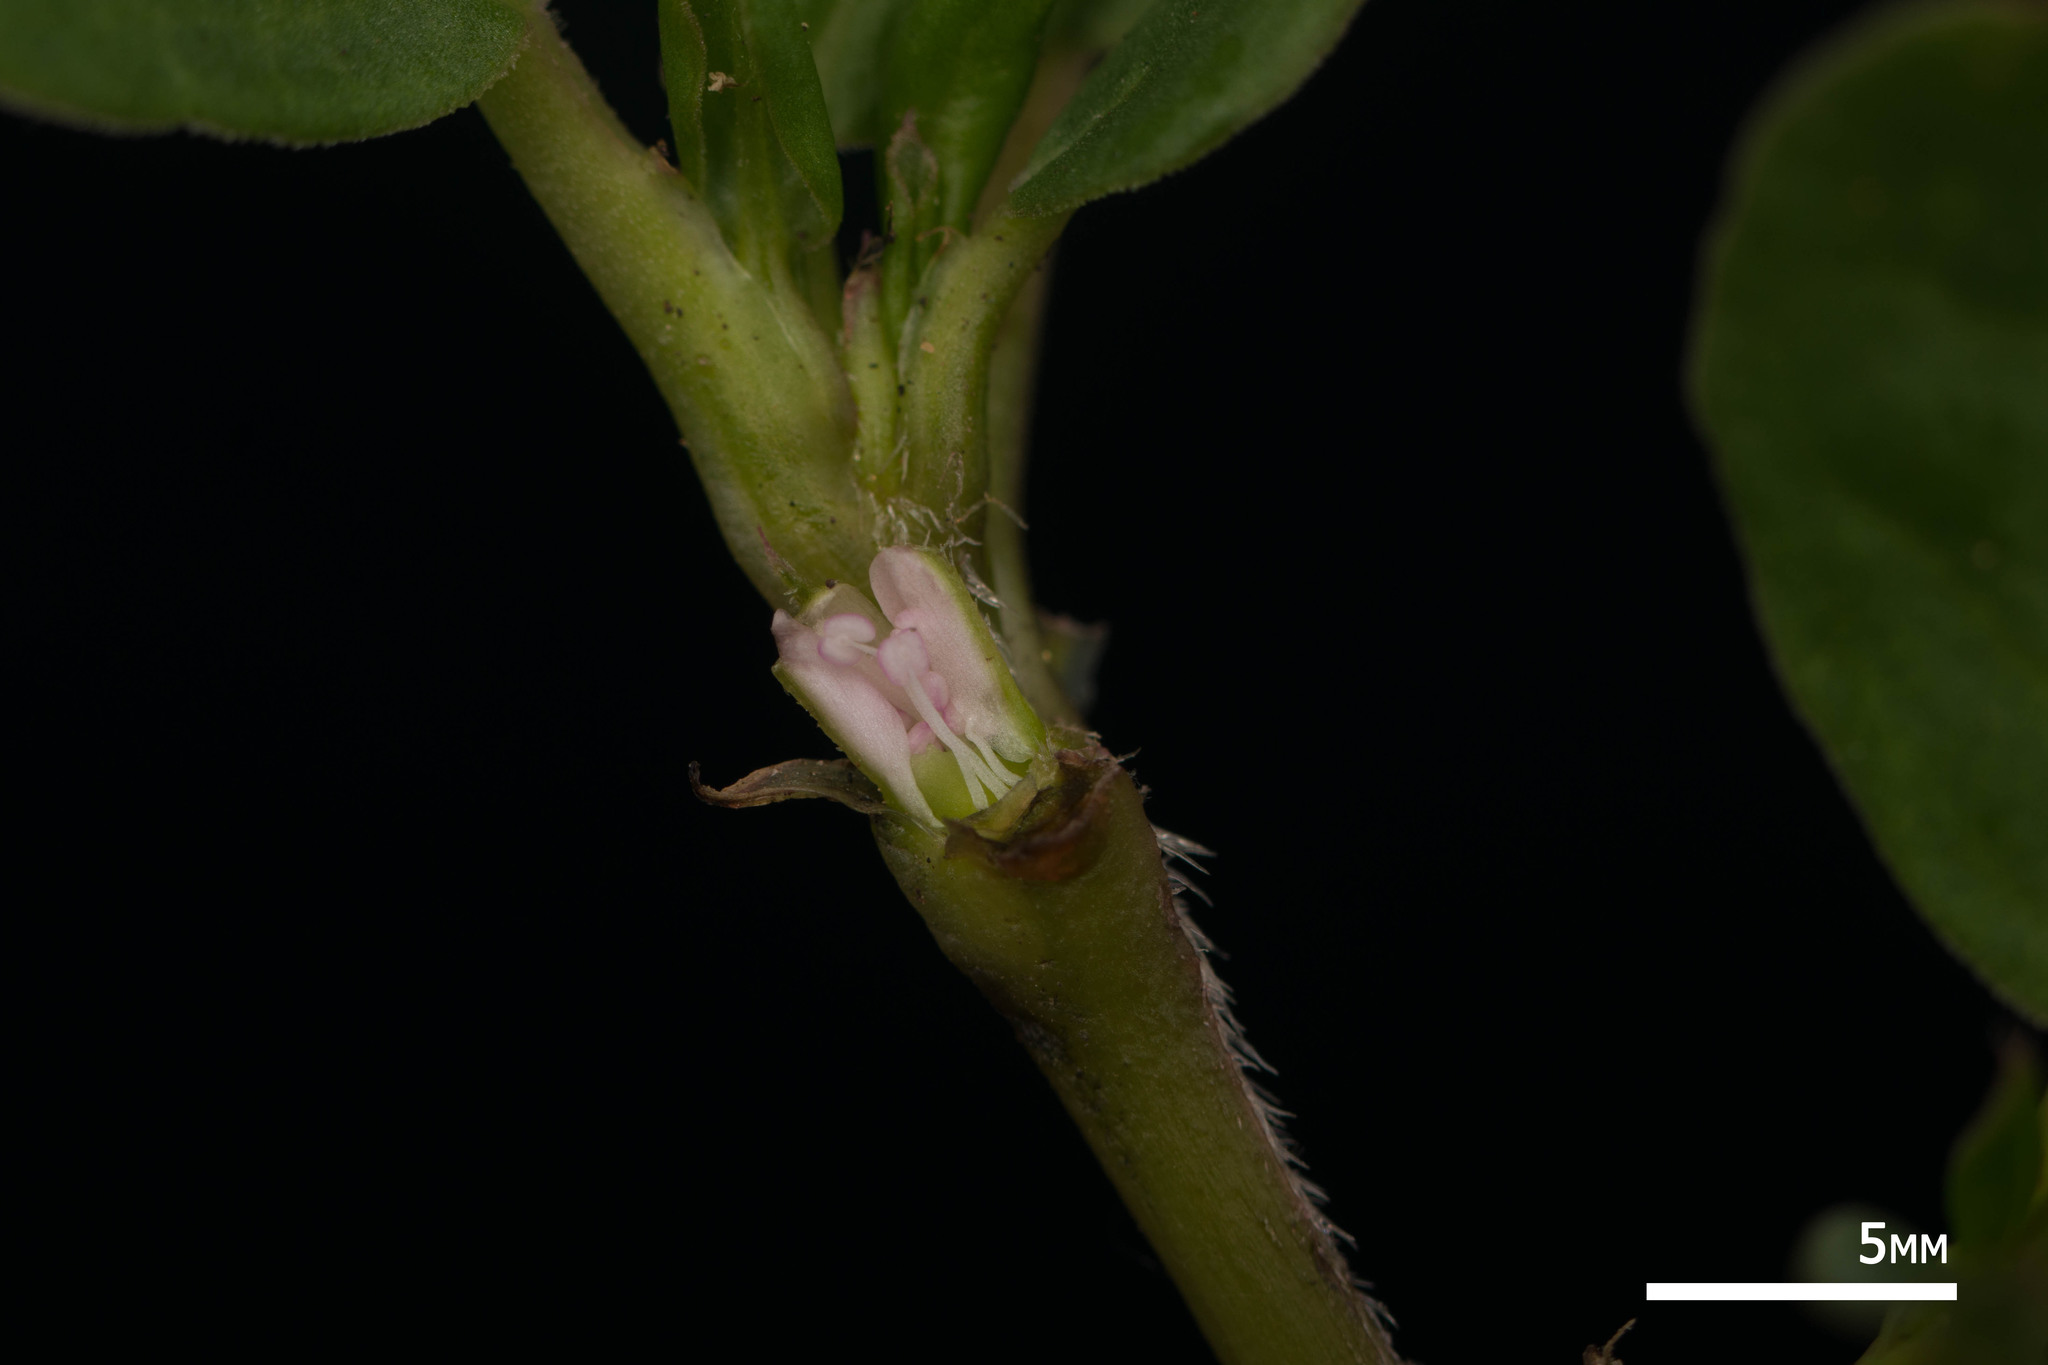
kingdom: Plantae
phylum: Tracheophyta
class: Magnoliopsida
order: Caryophyllales
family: Aizoaceae
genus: Trianthema
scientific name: Trianthema portulacastrum
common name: Desert horsepurslane
